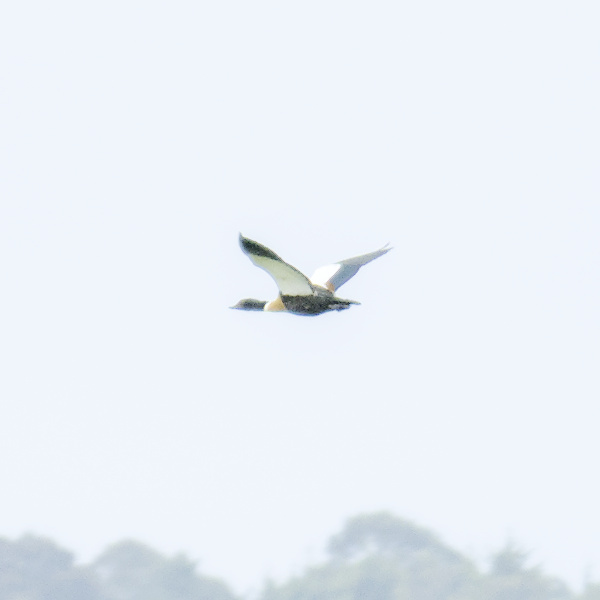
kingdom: Animalia
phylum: Chordata
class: Aves
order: Anseriformes
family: Anatidae
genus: Tadorna
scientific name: Tadorna tadornoides
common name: Australian shelduck
